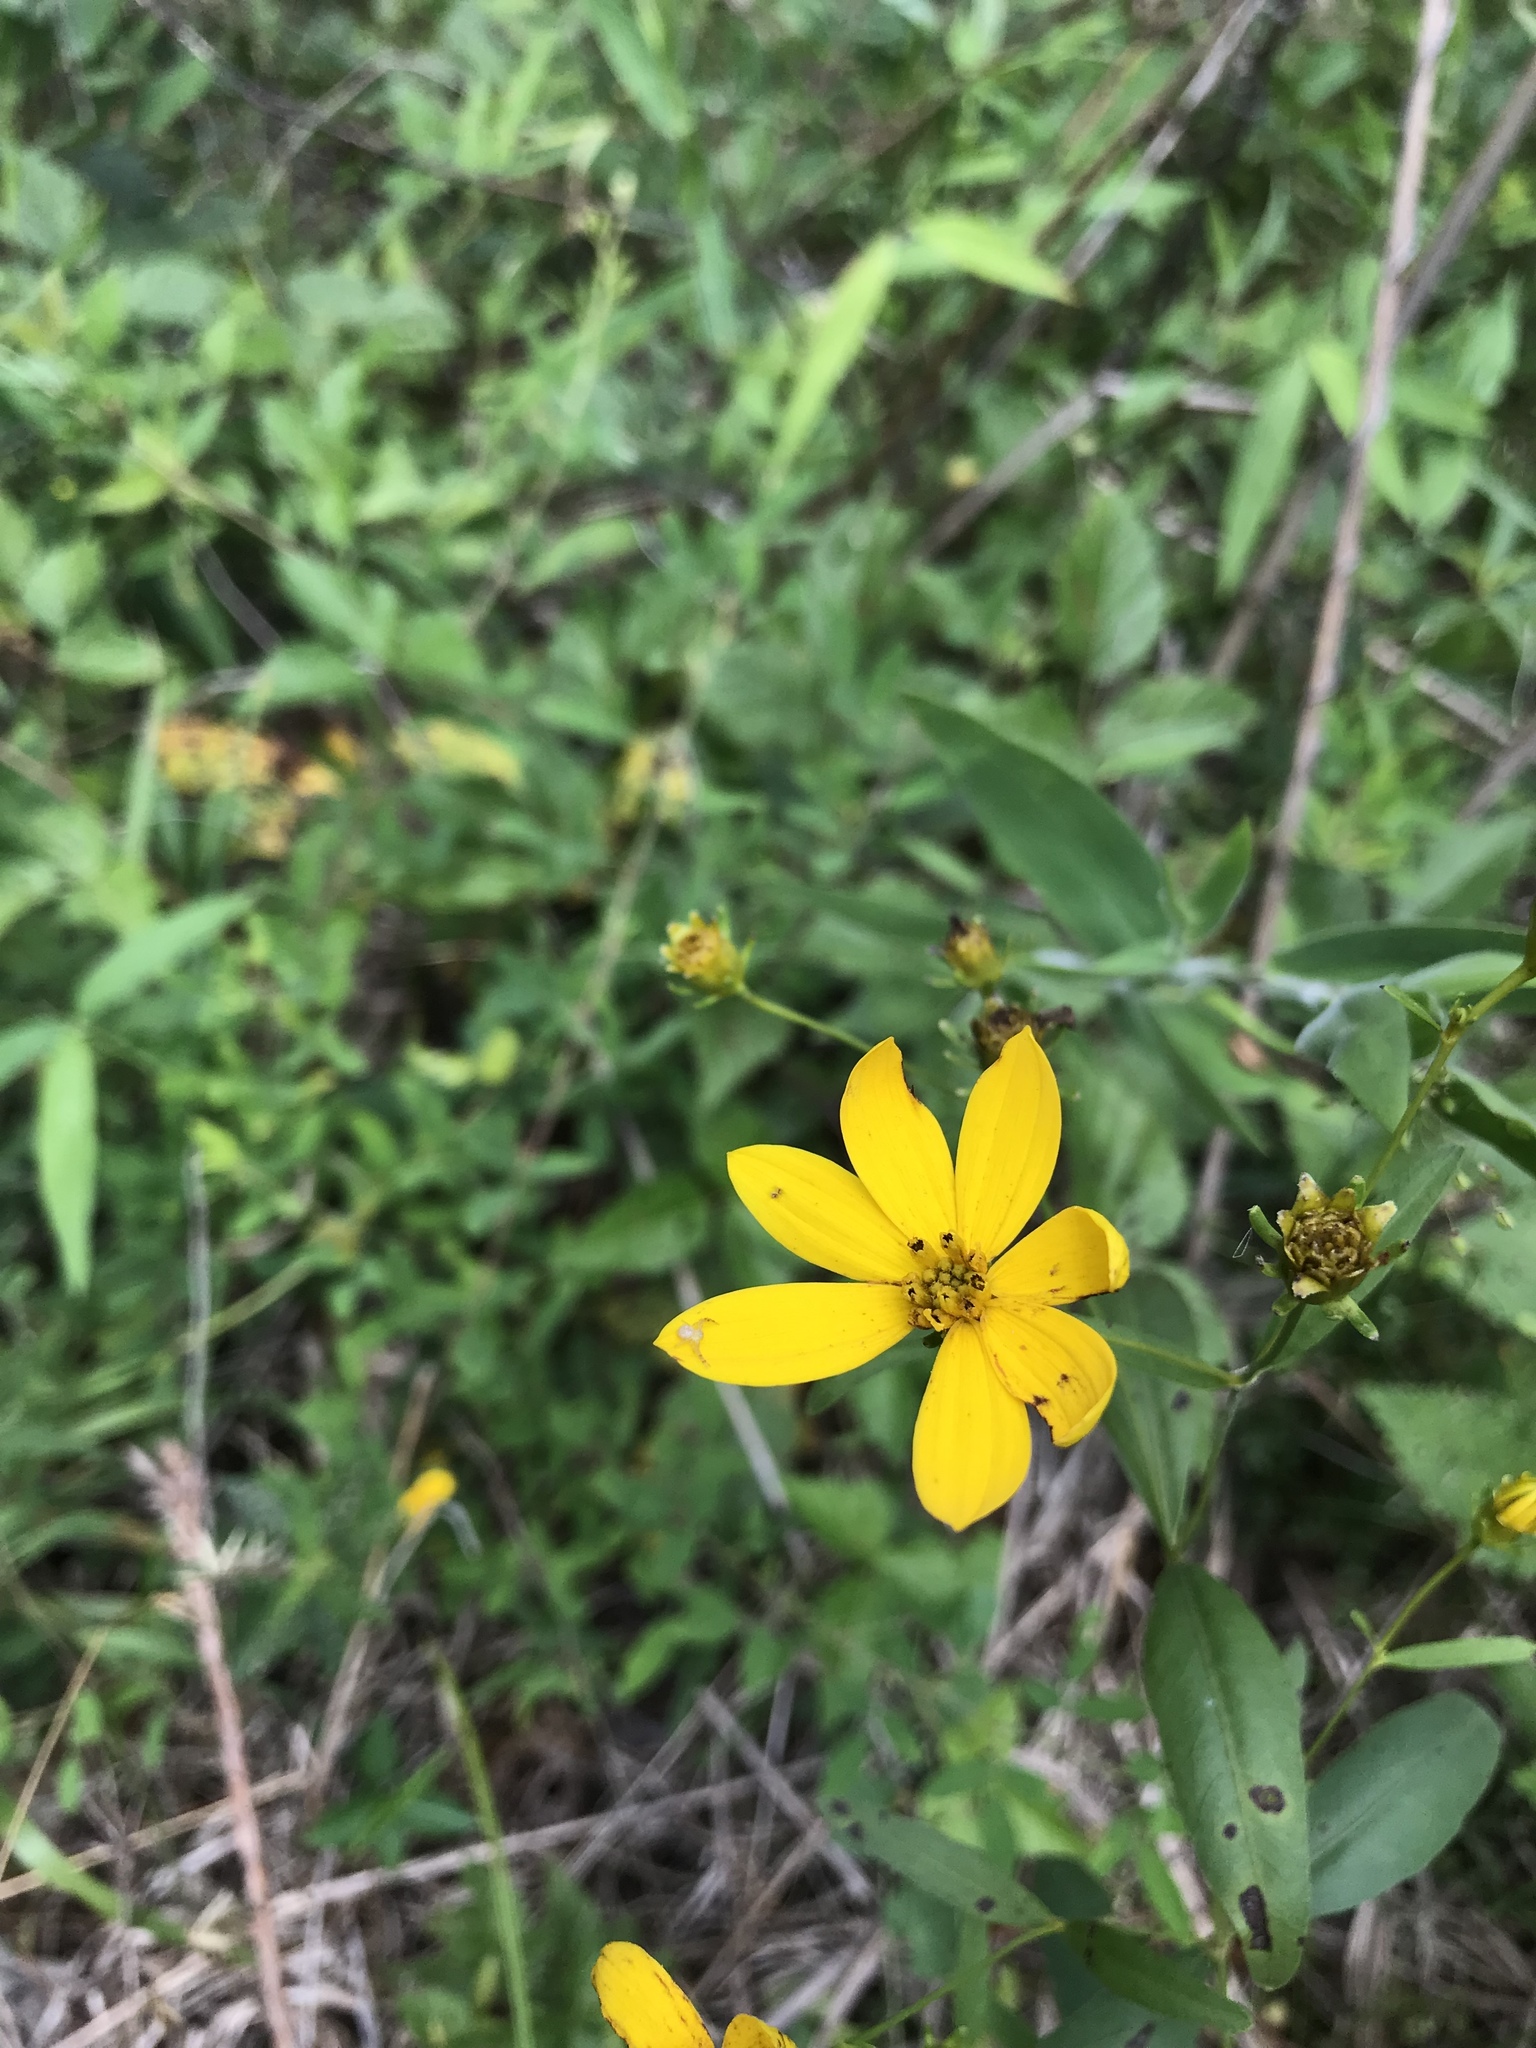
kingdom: Plantae
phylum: Tracheophyta
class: Magnoliopsida
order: Asterales
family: Asteraceae
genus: Coreopsis
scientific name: Coreopsis major
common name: Forest tickseed
